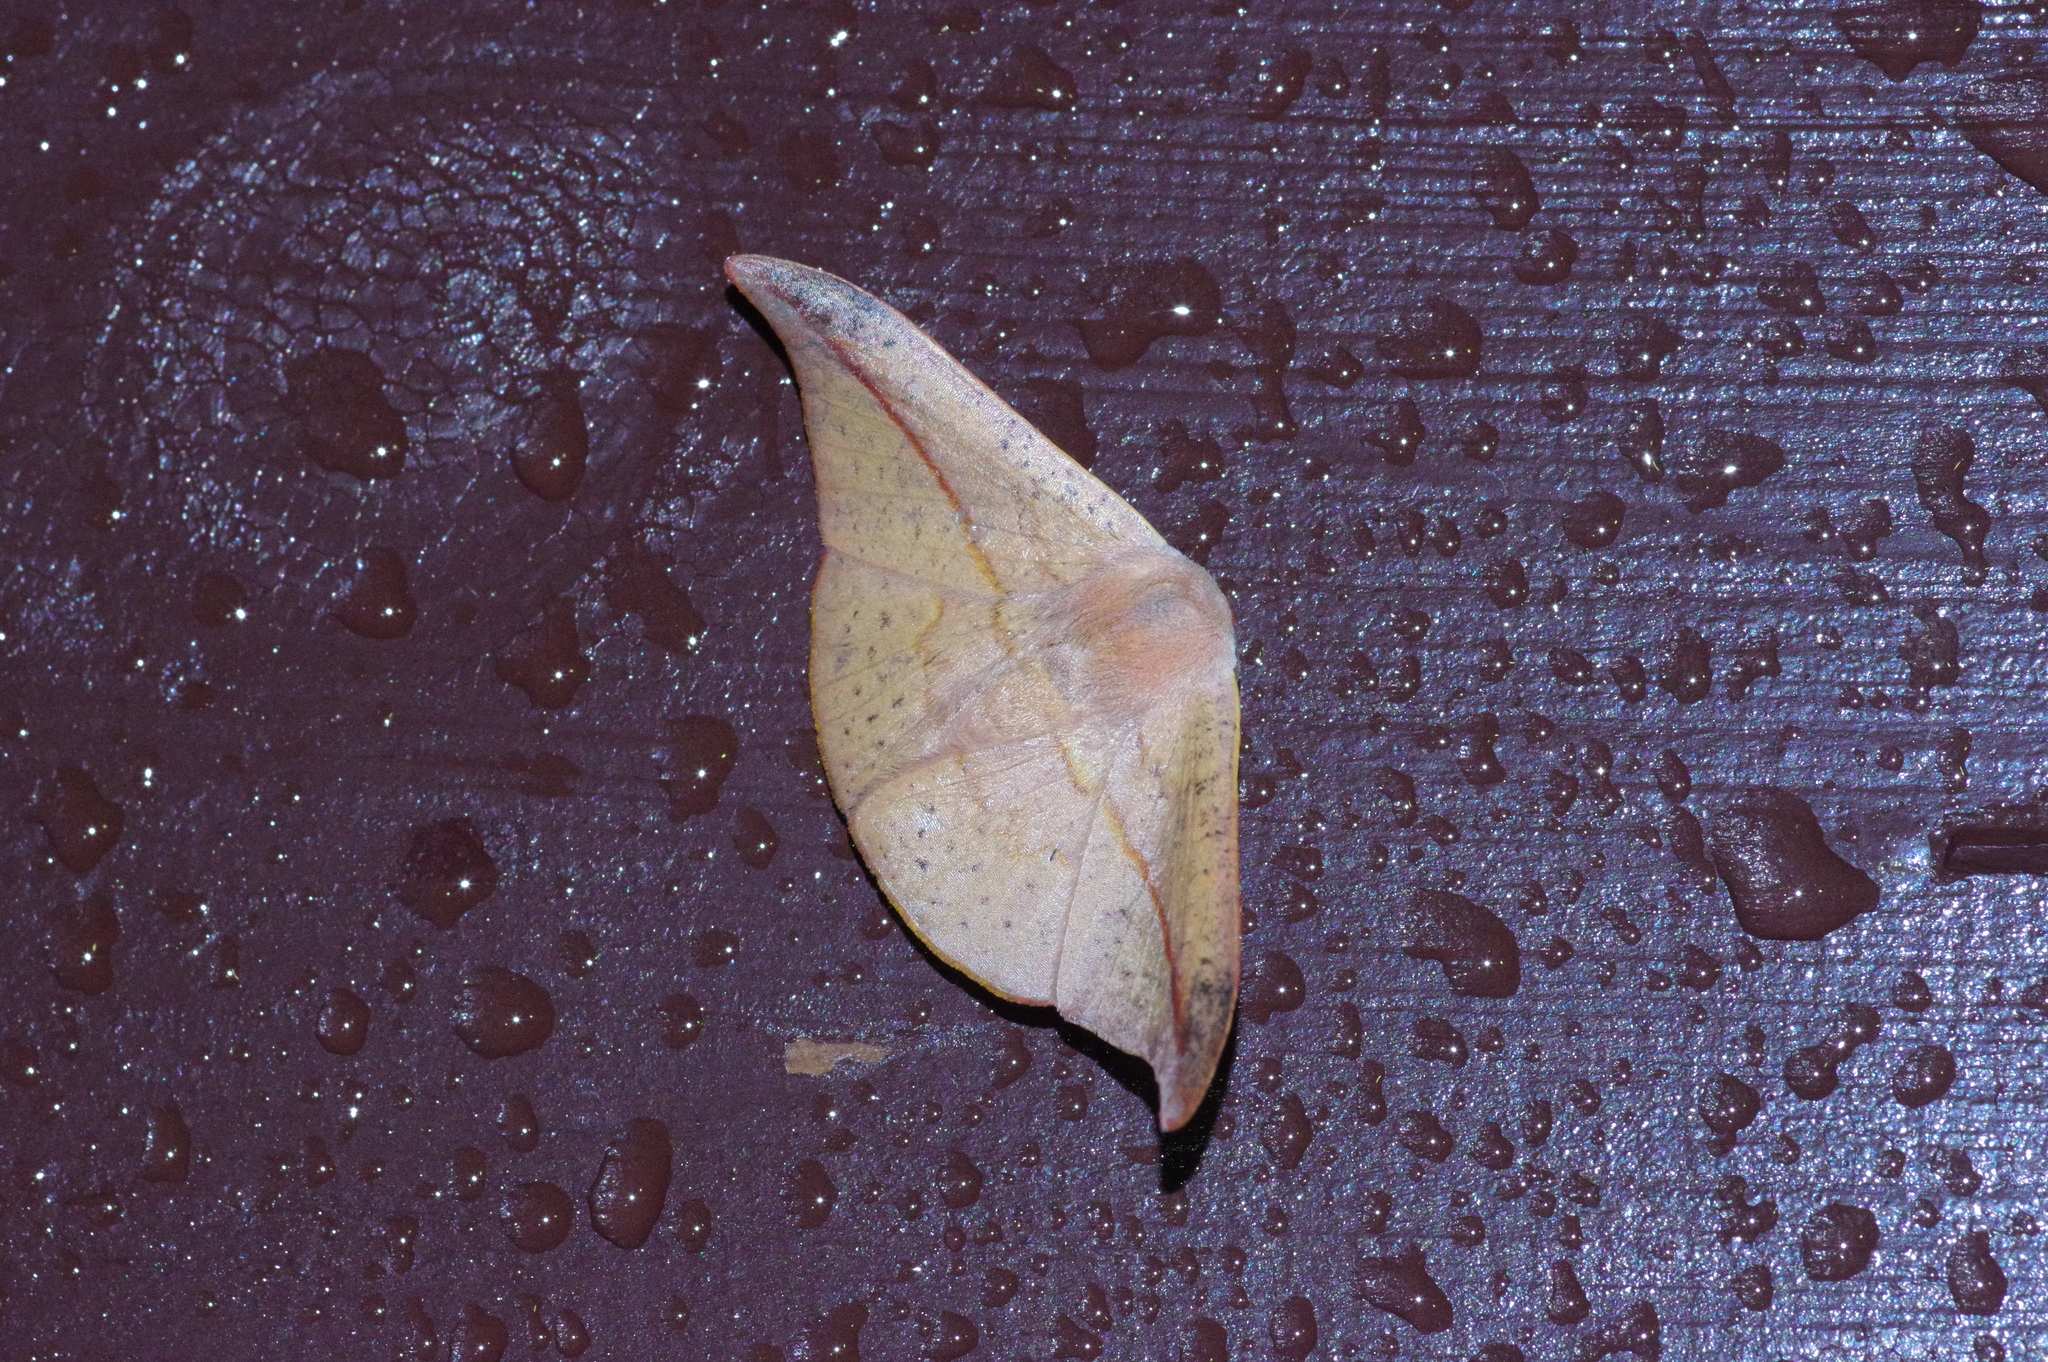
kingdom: Animalia
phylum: Arthropoda
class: Insecta
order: Lepidoptera
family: Drepanidae
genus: Oreta
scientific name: Oreta insignis
